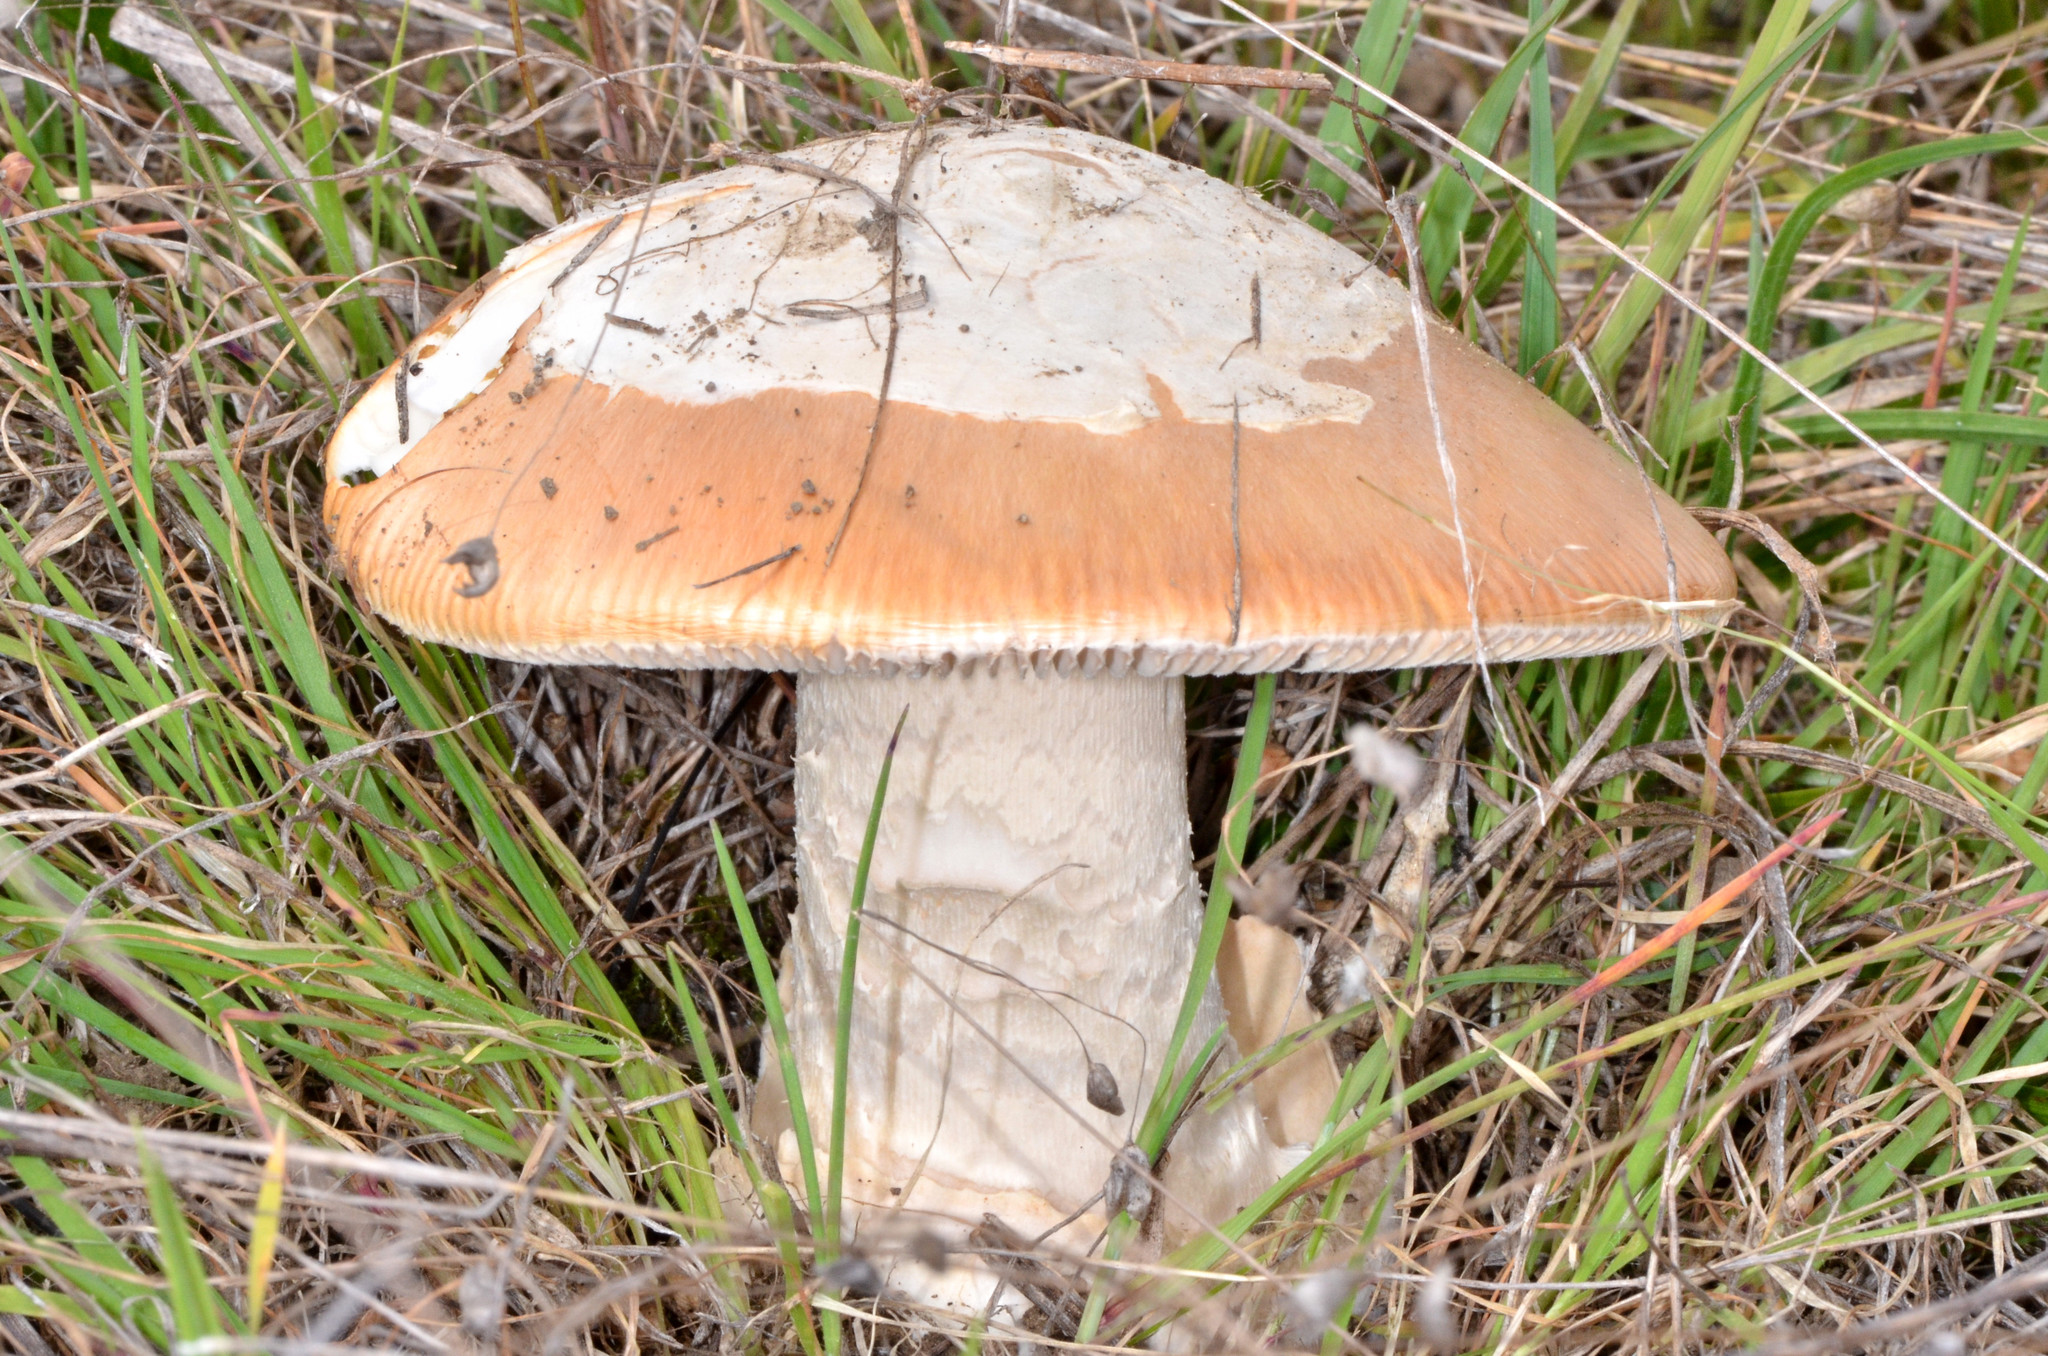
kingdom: Fungi
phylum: Basidiomycota
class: Agaricomycetes
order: Agaricales
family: Amanitaceae
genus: Amanita
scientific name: Amanita velosa
